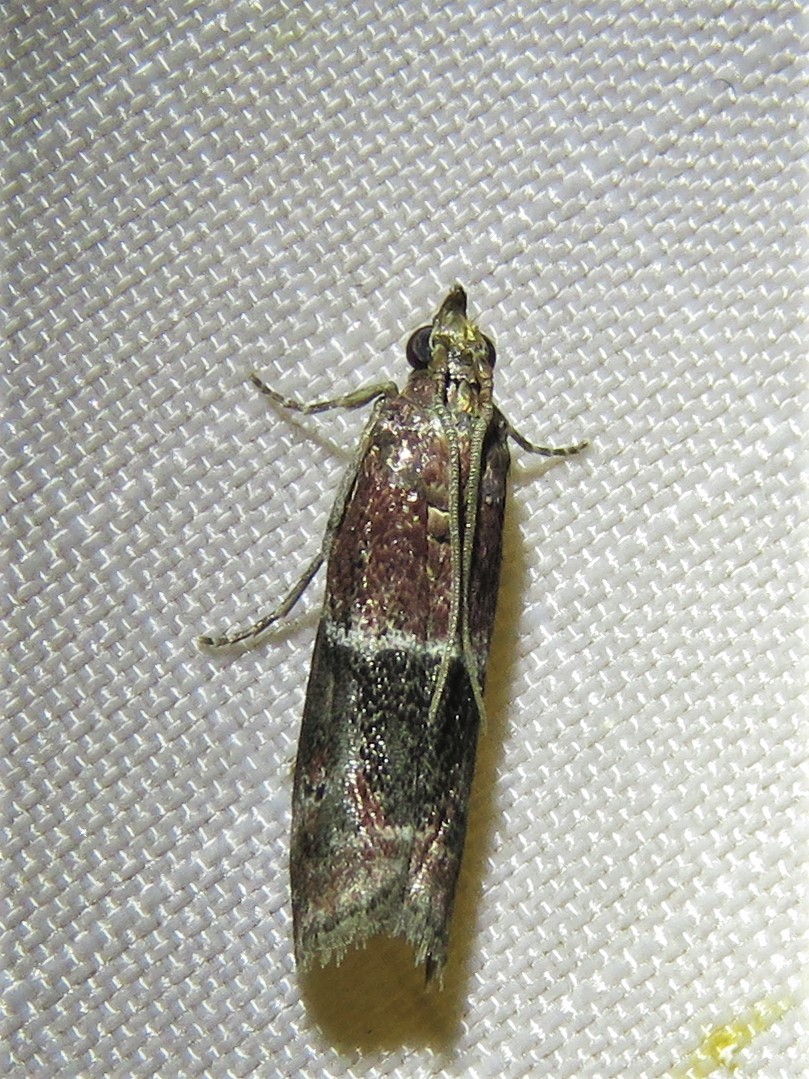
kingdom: Animalia
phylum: Arthropoda
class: Insecta
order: Lepidoptera
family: Pyralidae
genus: Moodna
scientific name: Moodna ostrinella
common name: Darker moodna moth
